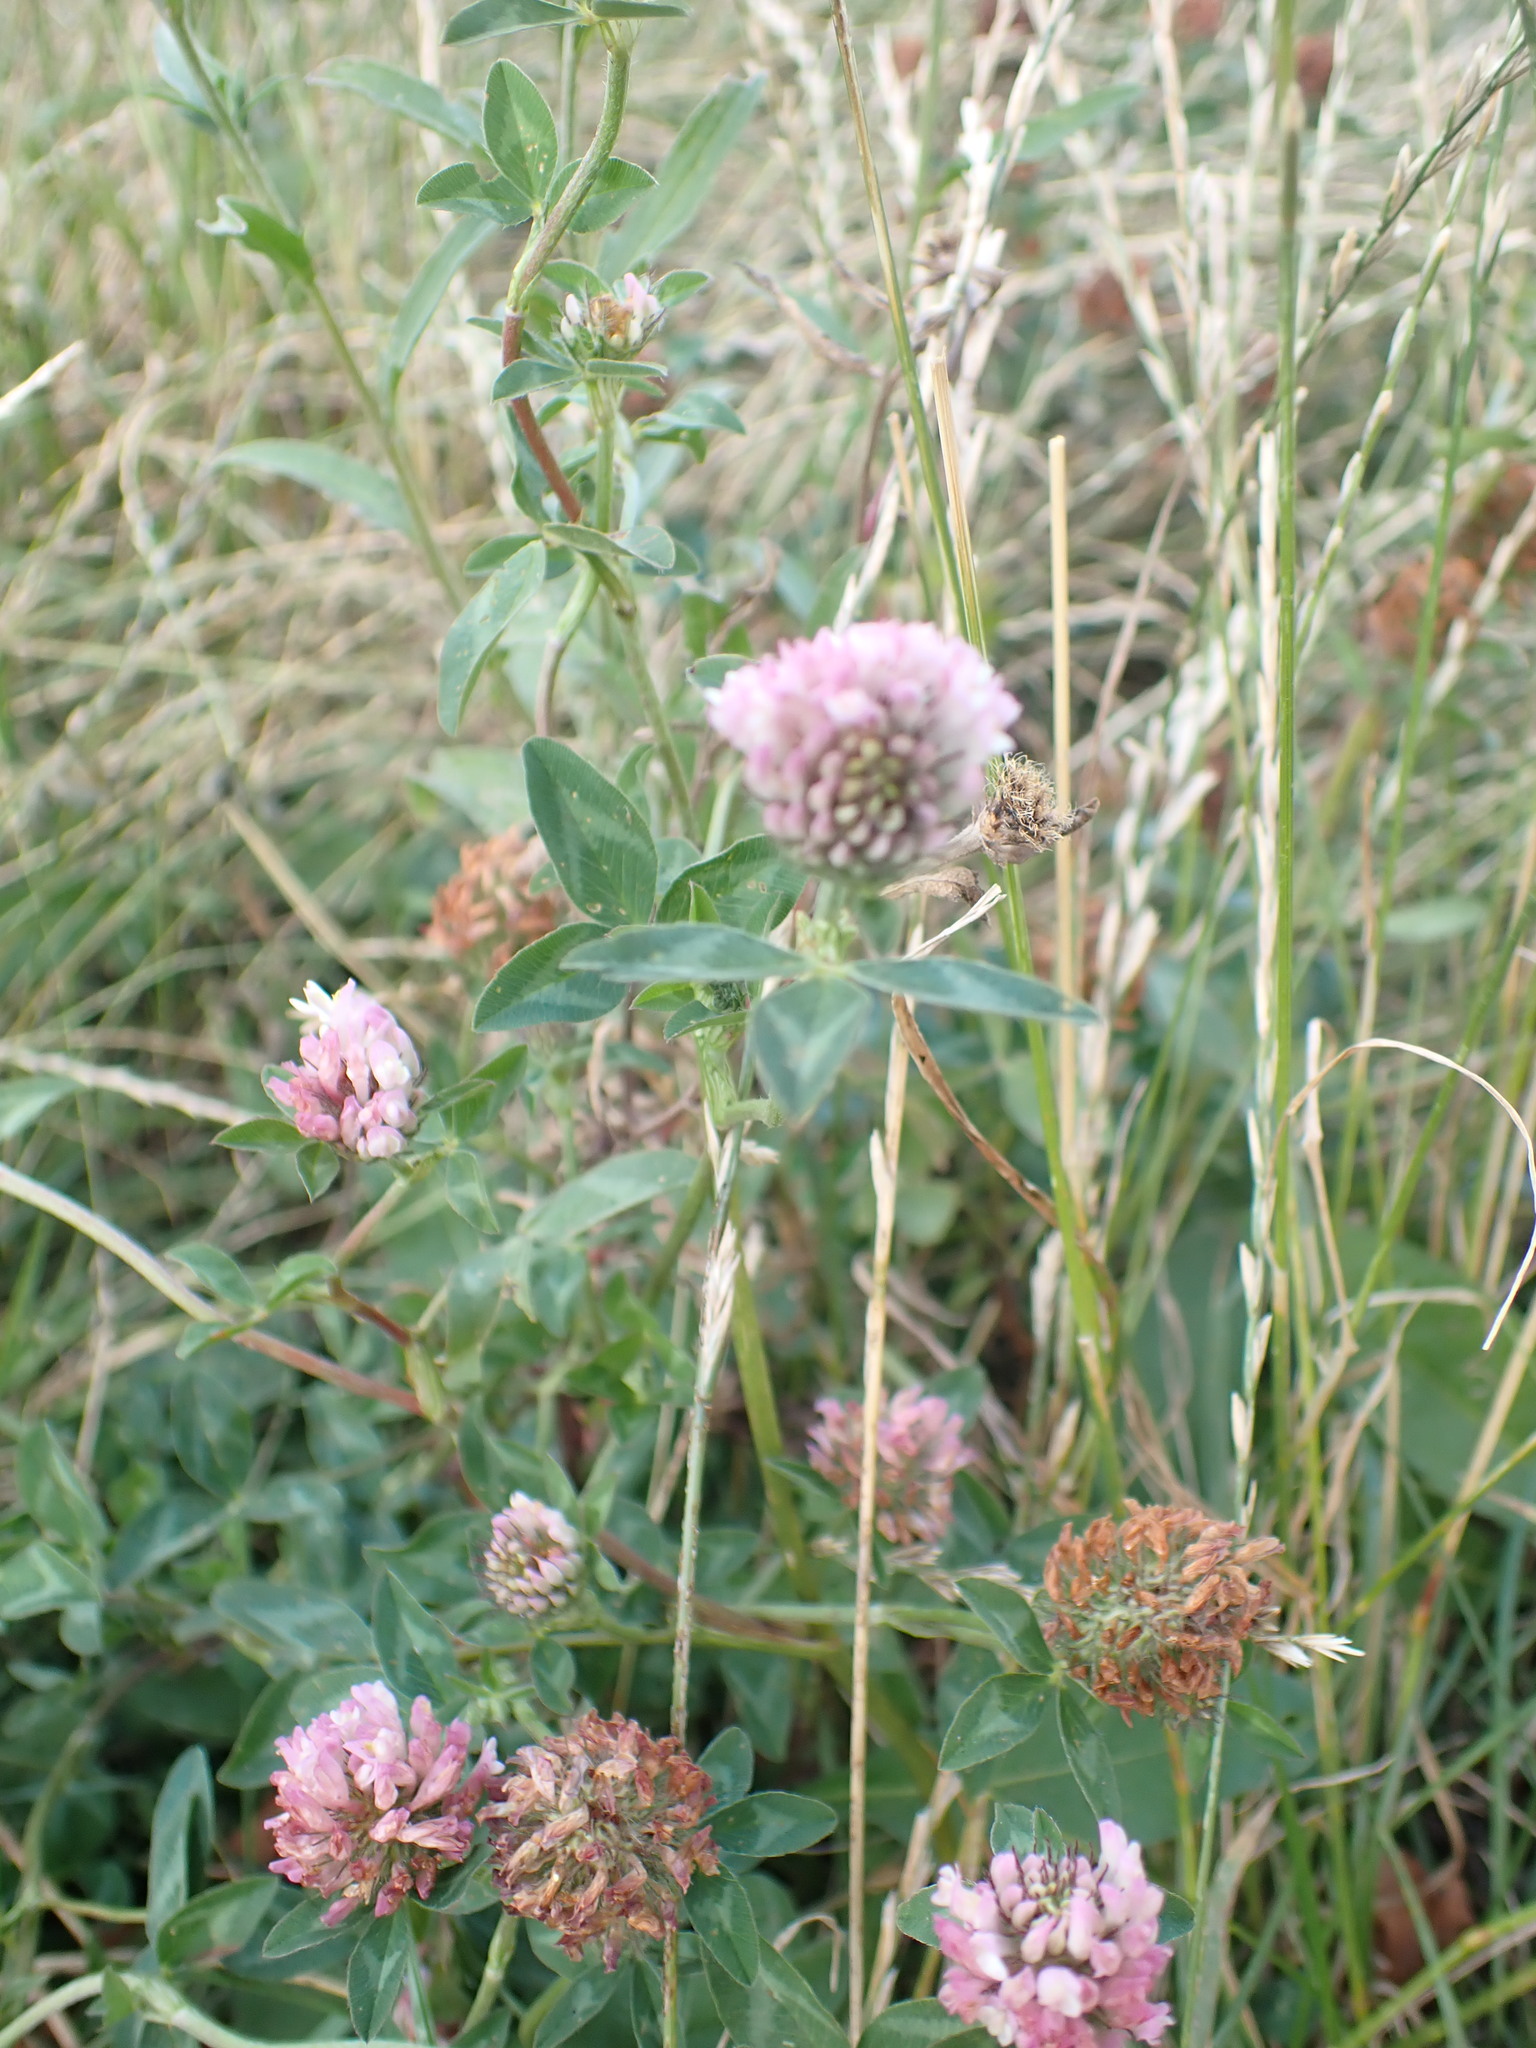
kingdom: Plantae
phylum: Tracheophyta
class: Magnoliopsida
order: Fabales
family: Fabaceae
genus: Trifolium
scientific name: Trifolium pratense
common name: Red clover
